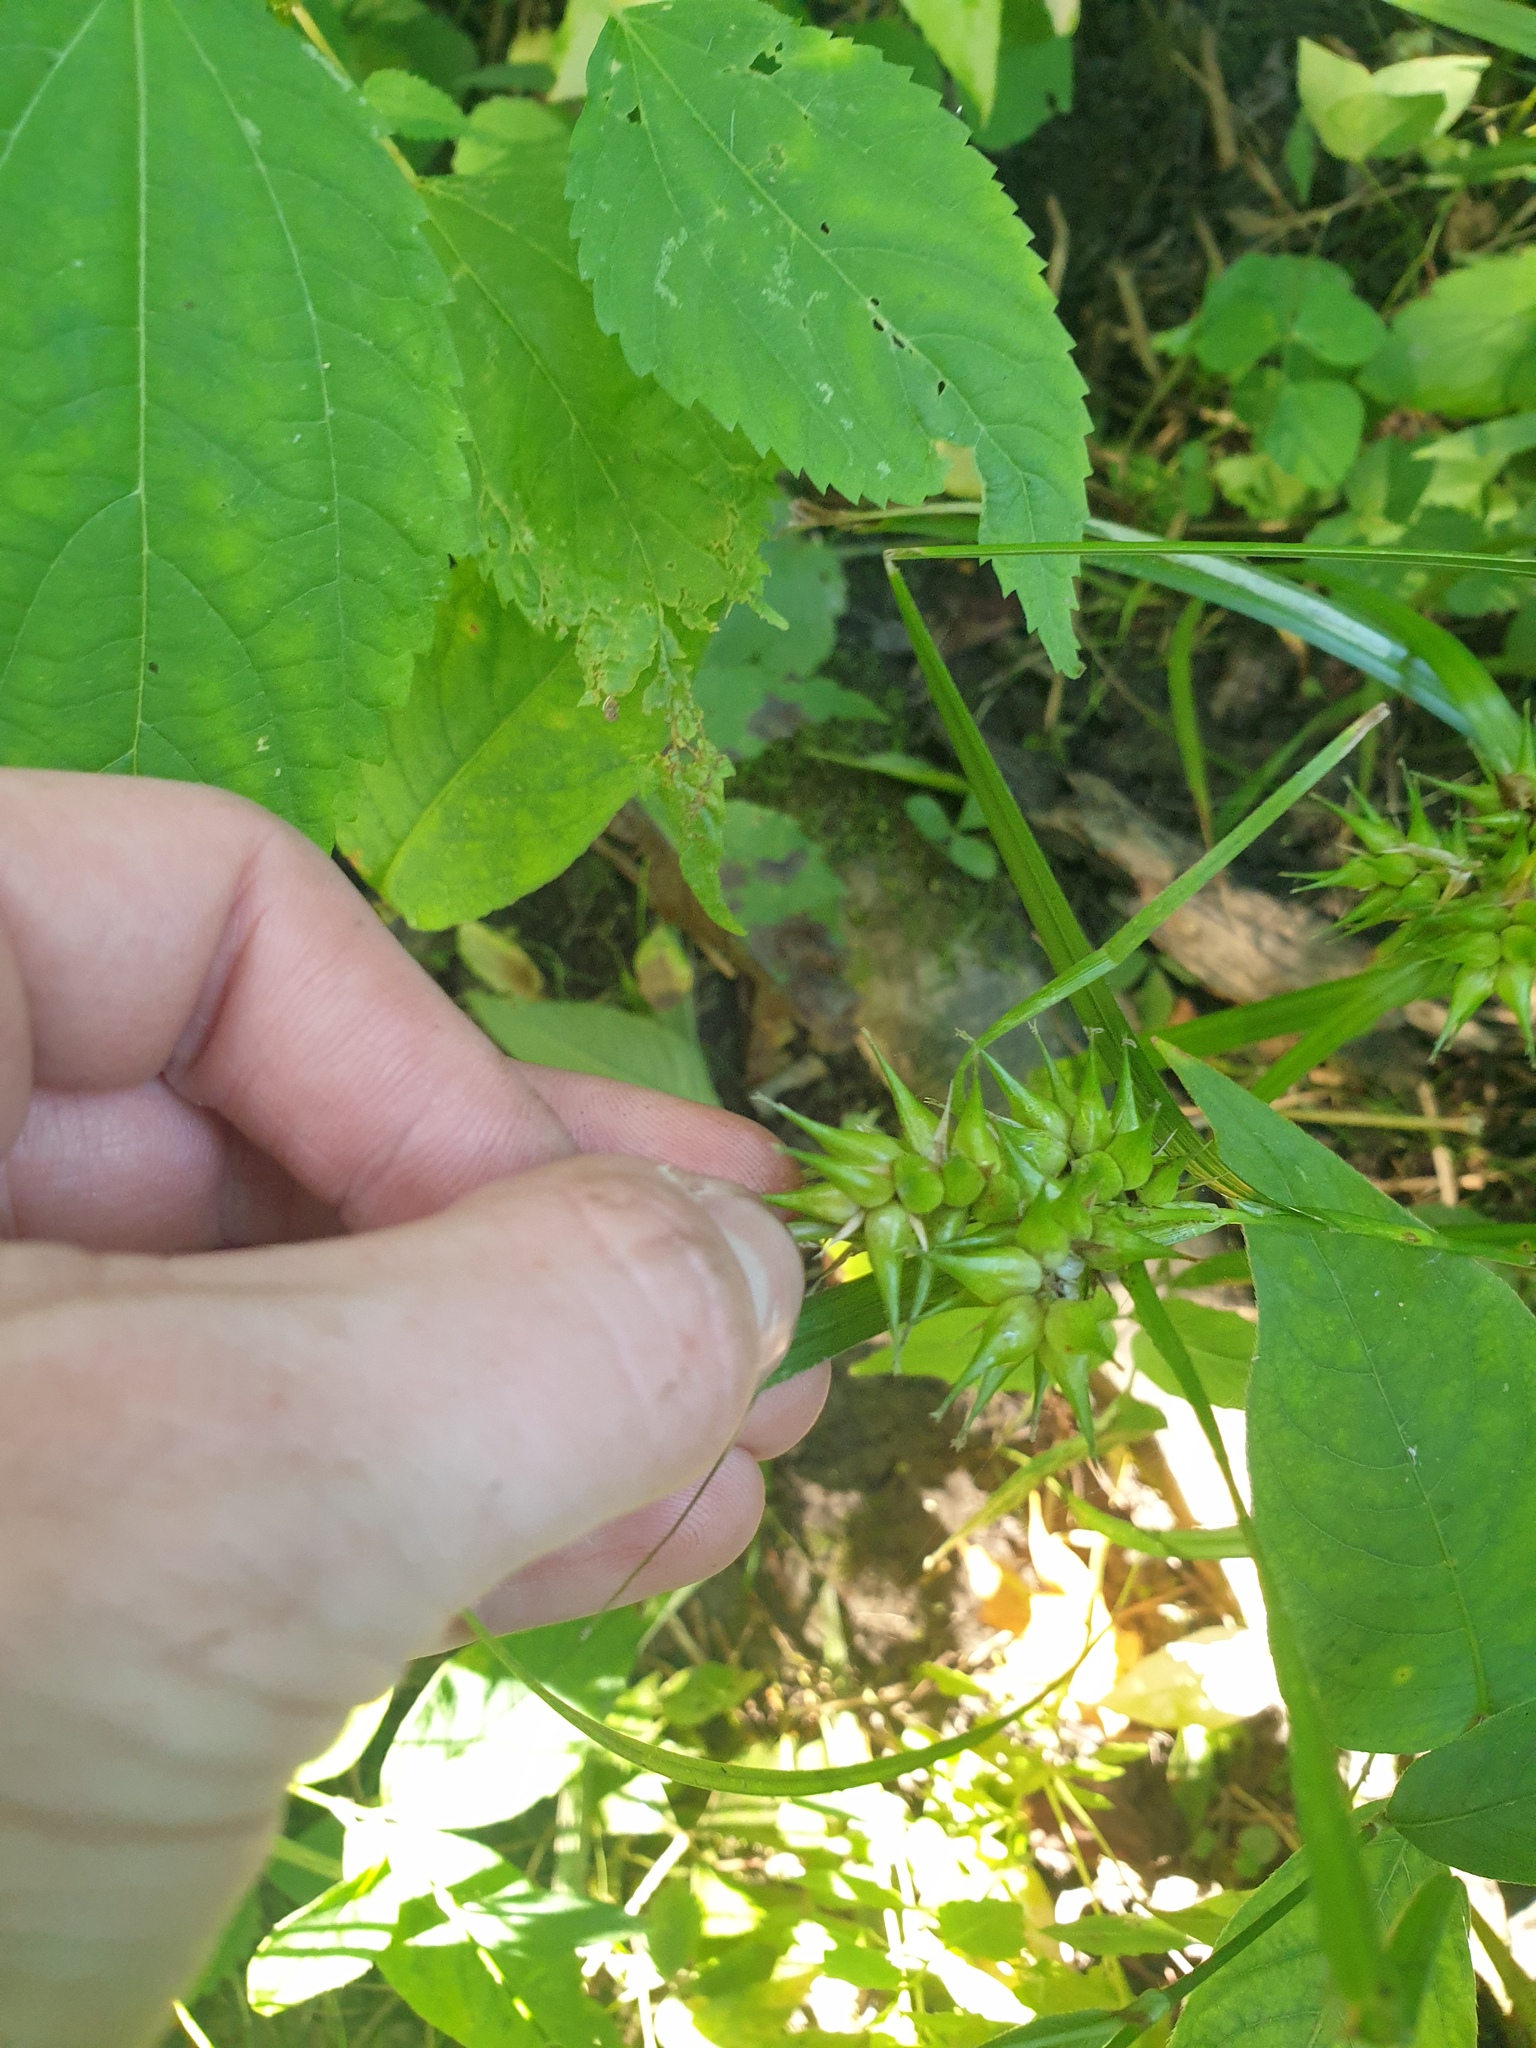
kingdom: Plantae
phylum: Tracheophyta
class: Liliopsida
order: Poales
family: Cyperaceae
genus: Carex
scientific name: Carex lupulina
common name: Hop sedge
